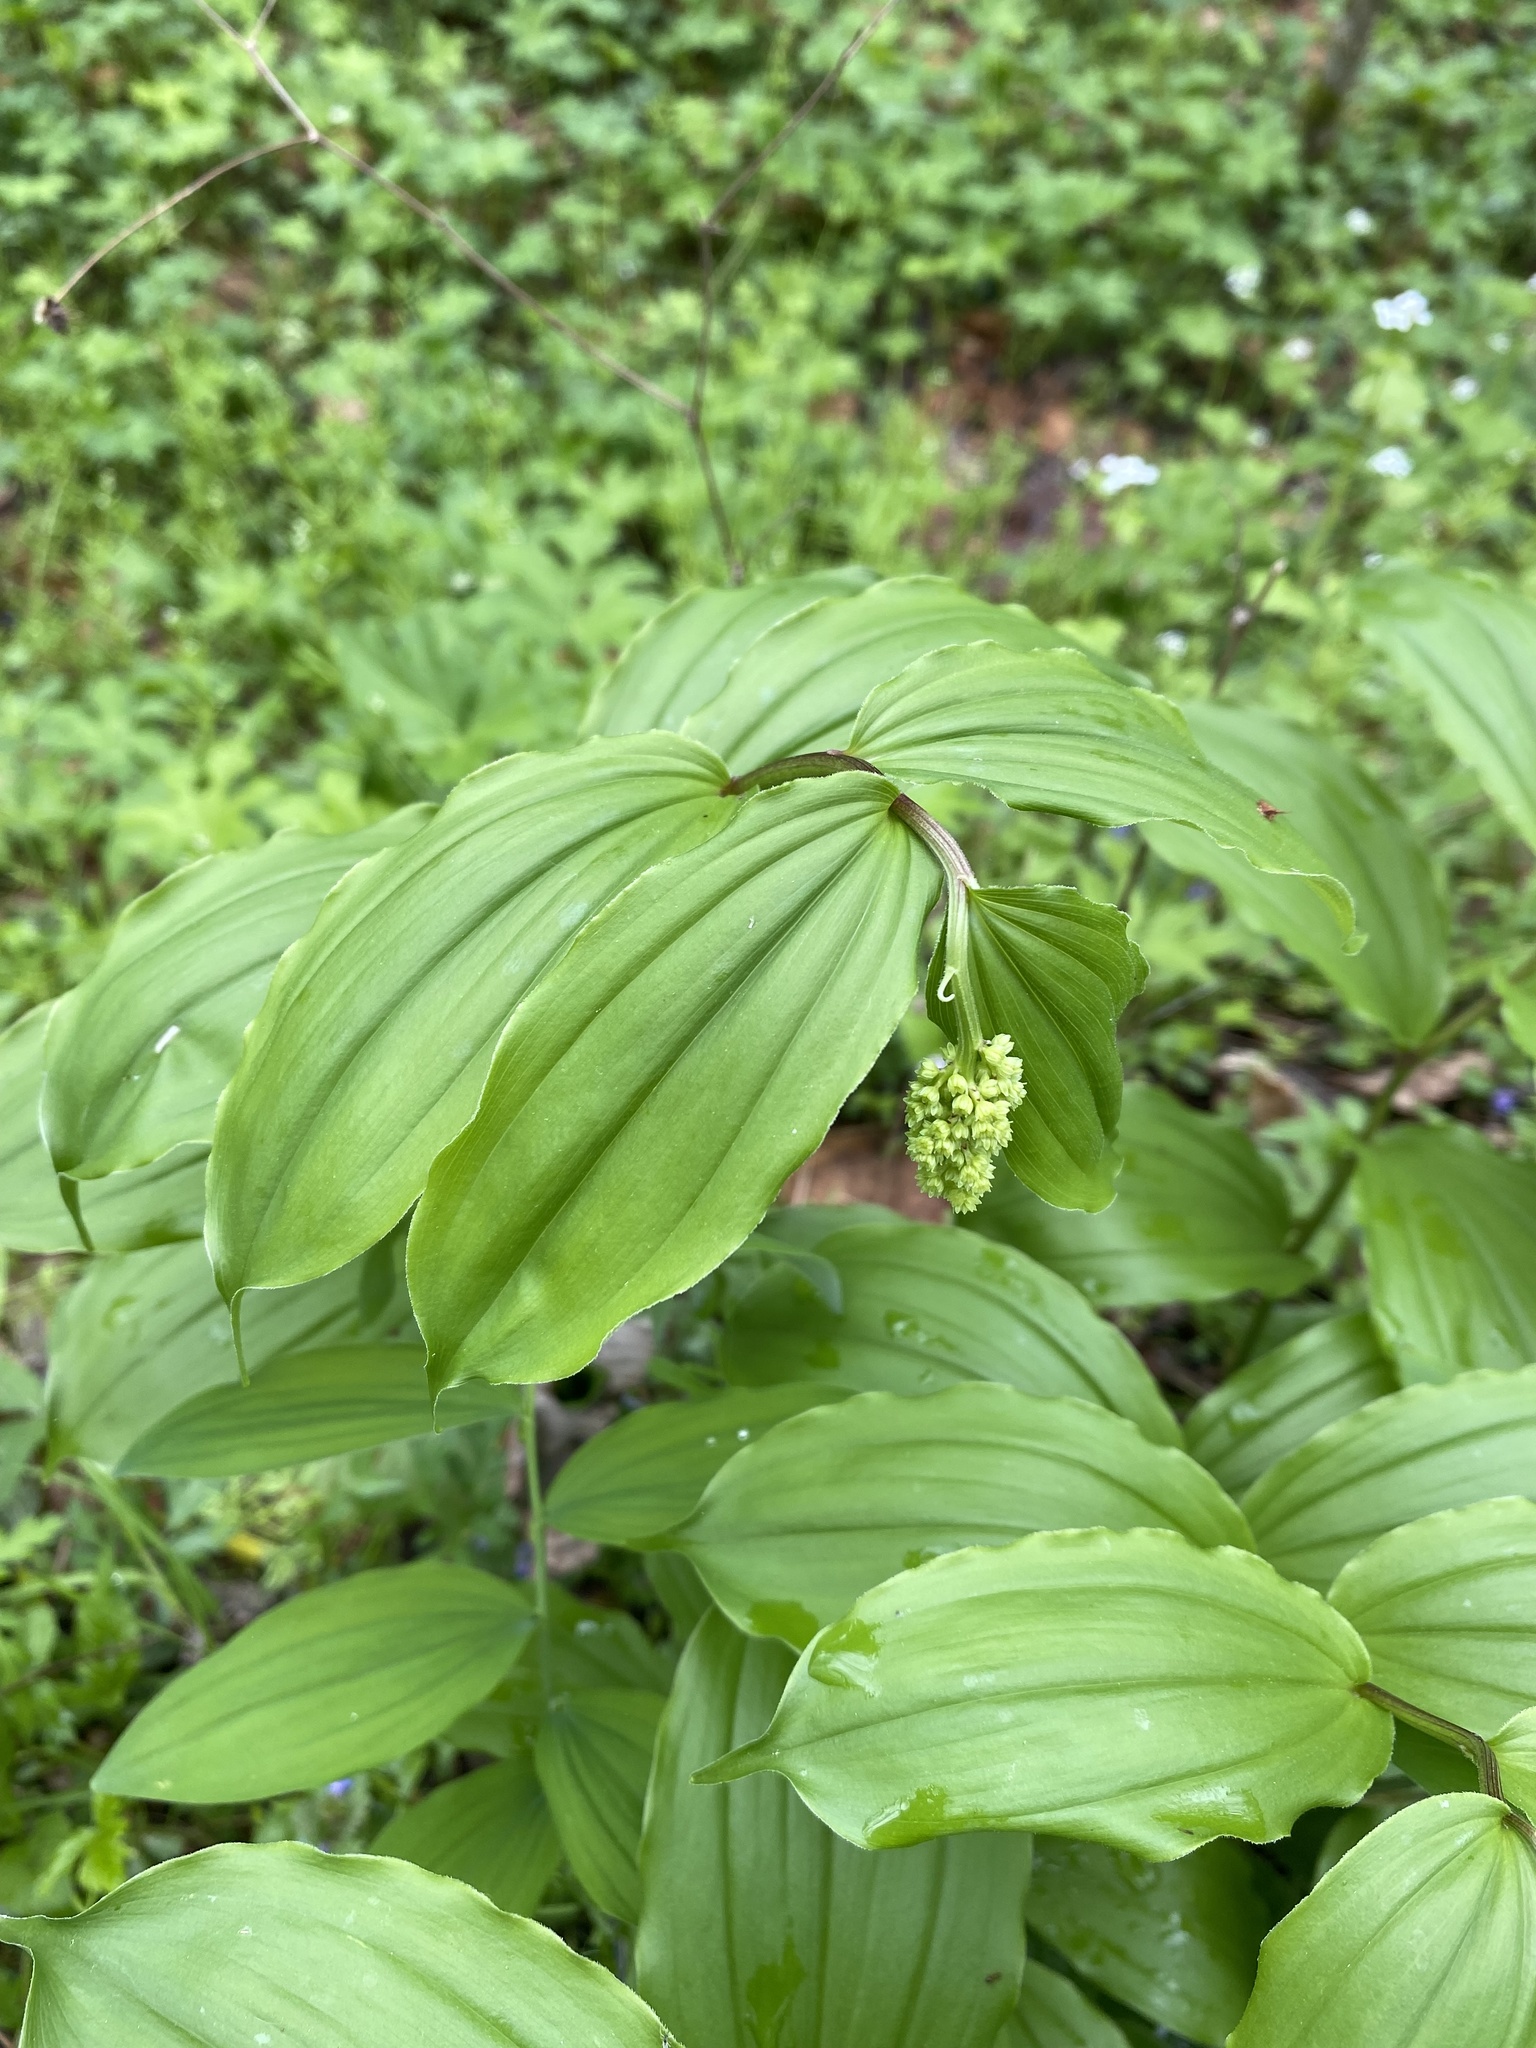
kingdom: Plantae
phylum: Tracheophyta
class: Liliopsida
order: Asparagales
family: Asparagaceae
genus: Maianthemum
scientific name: Maianthemum racemosum
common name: False spikenard
